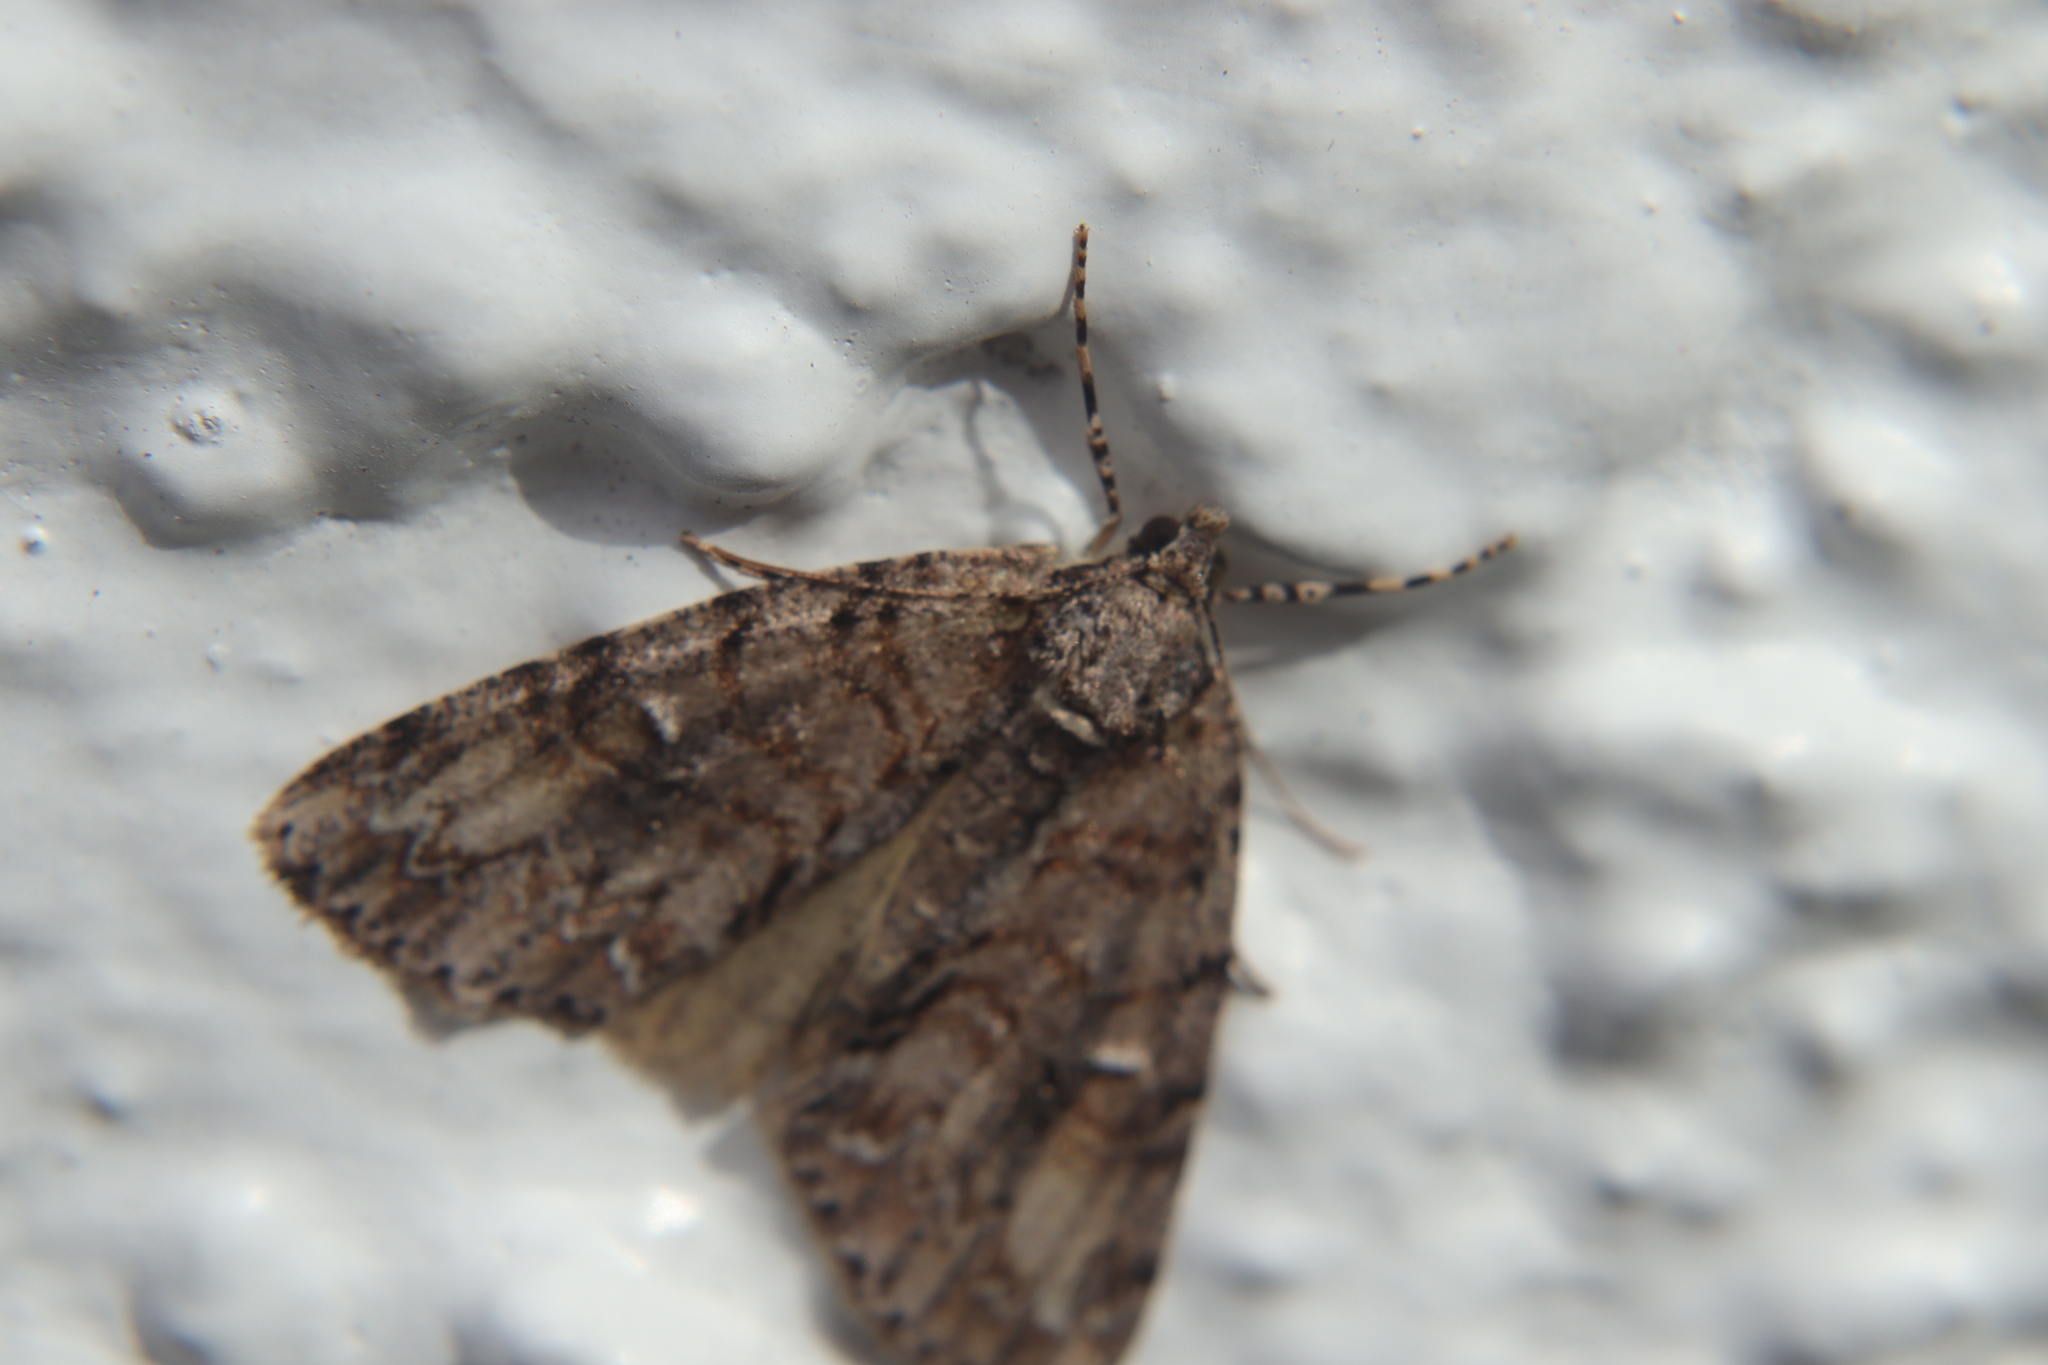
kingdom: Animalia
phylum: Arthropoda
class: Insecta
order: Lepidoptera
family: Geometridae
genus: Pseudocoremia
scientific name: Pseudocoremia suavis
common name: Common forest looper
